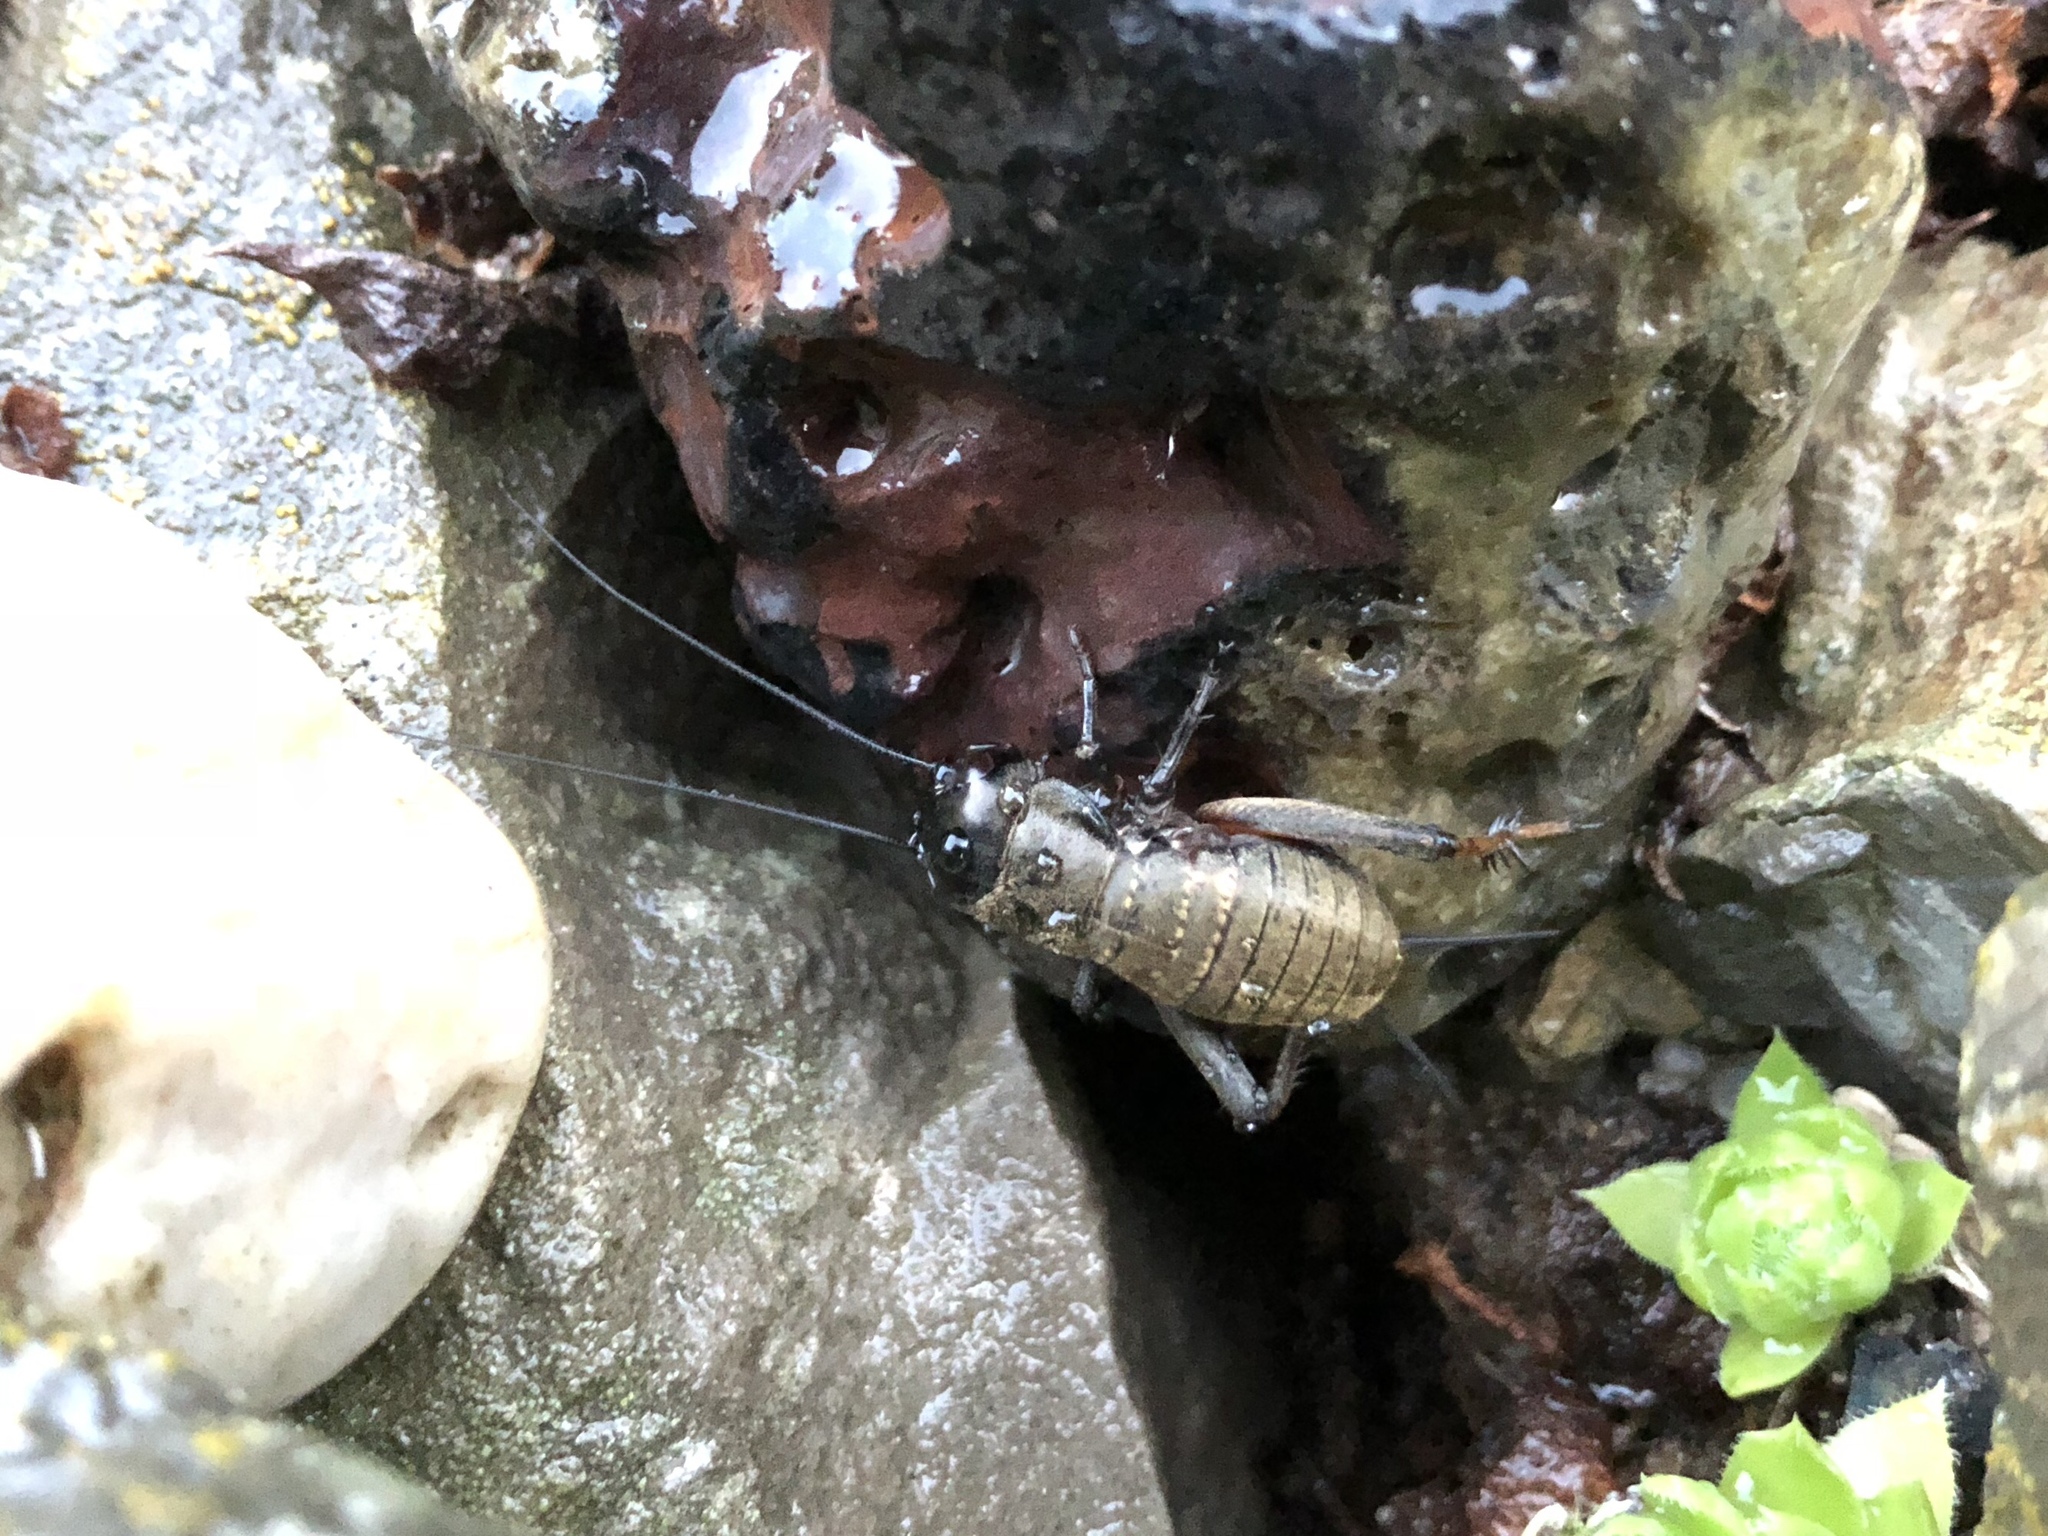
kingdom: Animalia
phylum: Arthropoda
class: Insecta
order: Orthoptera
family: Gryllidae
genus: Gryllus
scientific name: Gryllus campestris
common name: Field cricket
